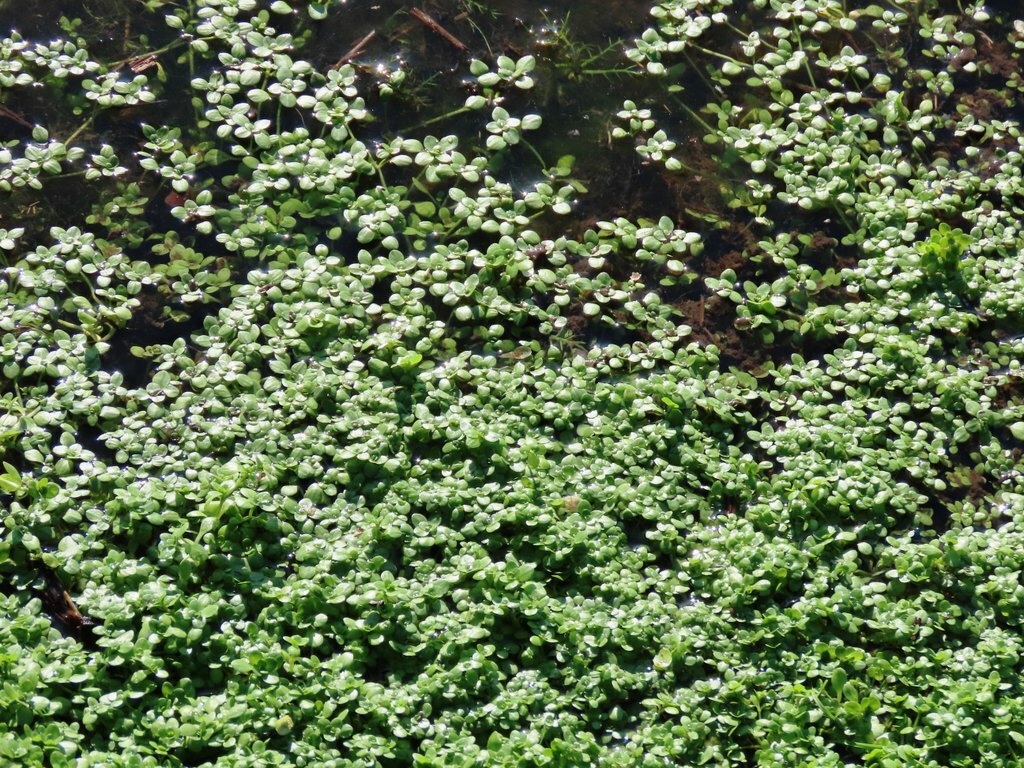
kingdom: Plantae
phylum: Tracheophyta
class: Magnoliopsida
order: Lamiales
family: Plantaginaceae
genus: Callitriche
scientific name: Callitriche stagnalis
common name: Common water-starwort
